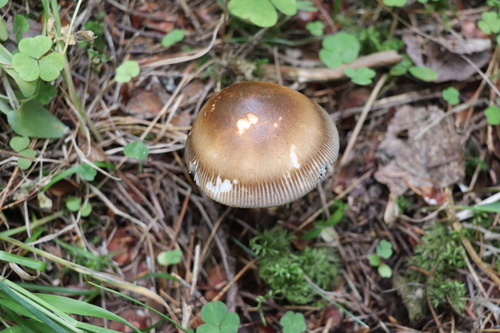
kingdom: Fungi
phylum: Basidiomycota
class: Agaricomycetes
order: Agaricales
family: Amanitaceae
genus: Amanita
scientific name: Amanita fulva
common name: Tawny grisette
